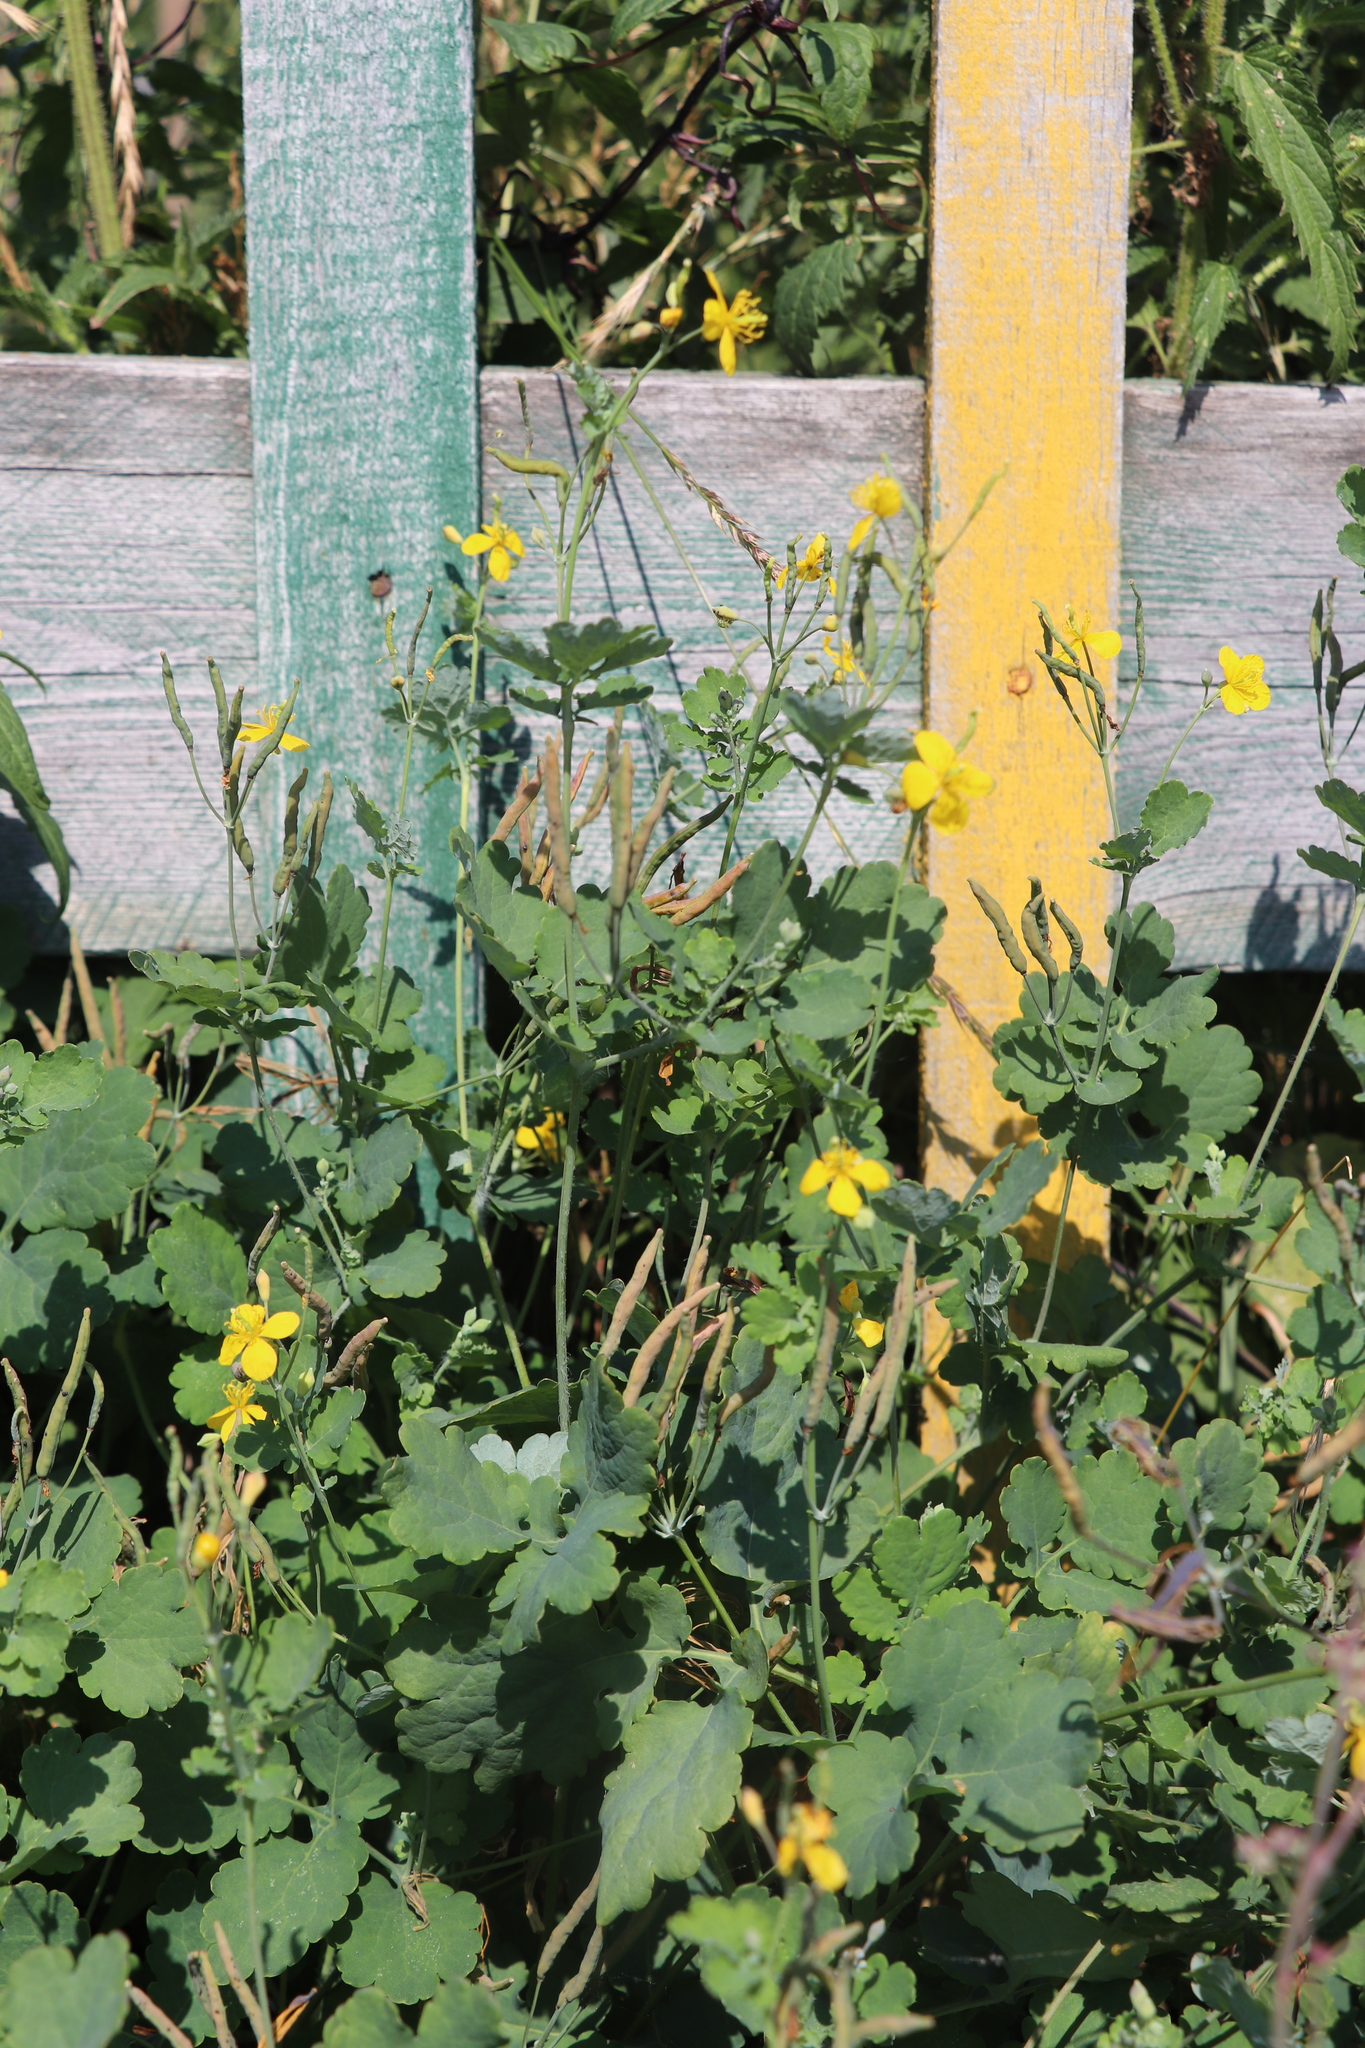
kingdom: Plantae
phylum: Tracheophyta
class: Magnoliopsida
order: Ranunculales
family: Papaveraceae
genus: Chelidonium
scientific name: Chelidonium majus
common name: Greater celandine
